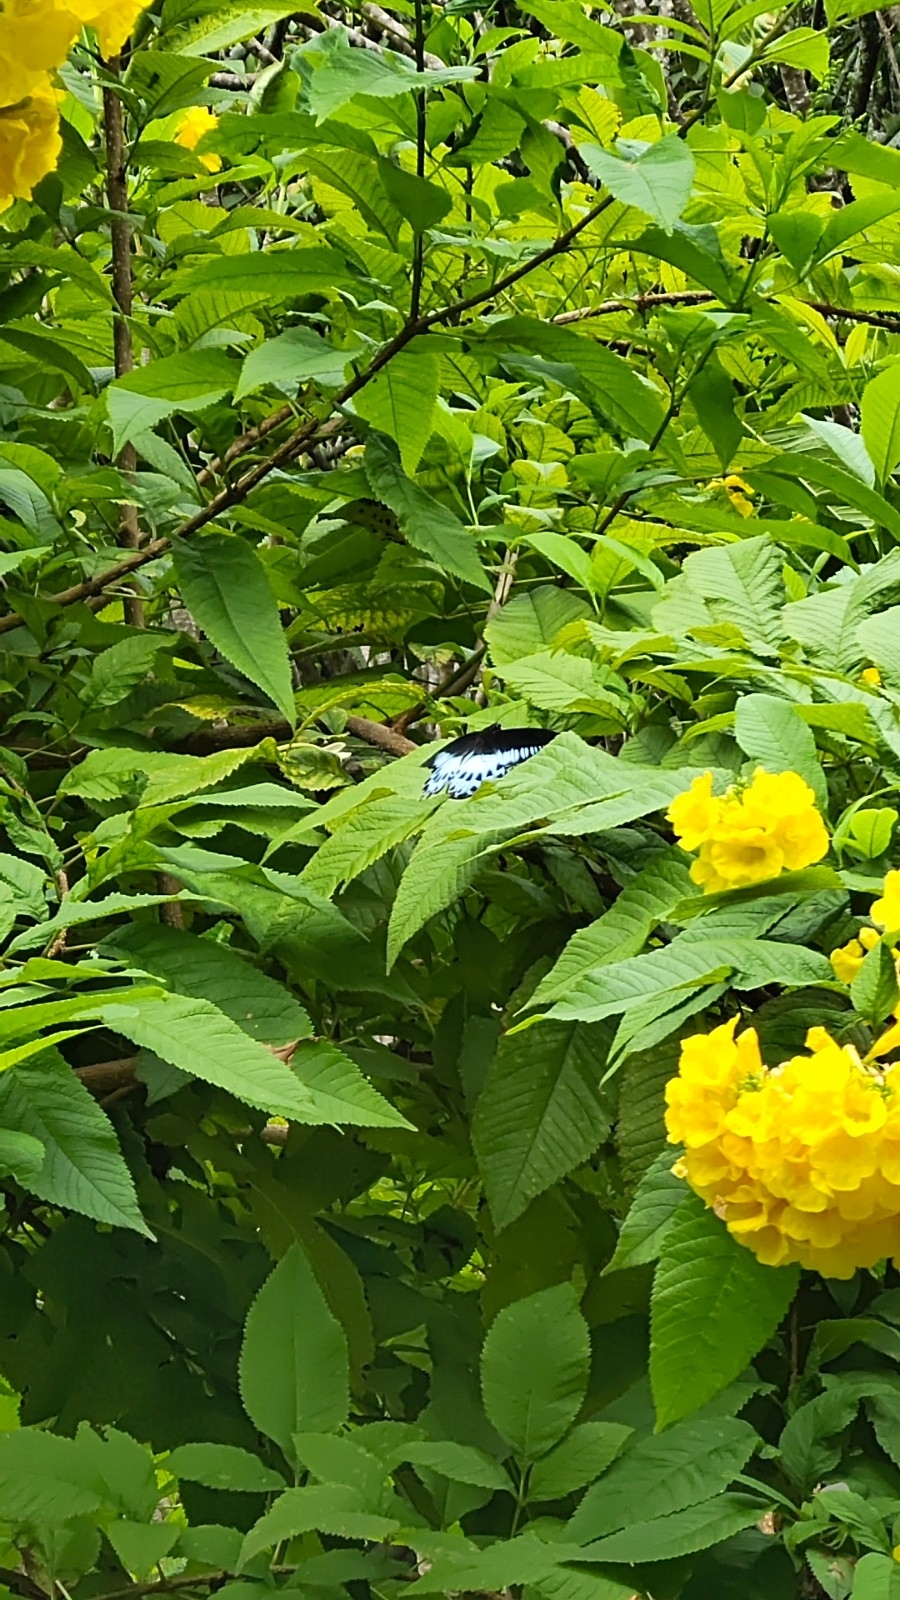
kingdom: Animalia
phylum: Arthropoda
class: Insecta
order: Lepidoptera
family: Papilionidae
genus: Papilio
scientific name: Papilio memnon
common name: Great mormon
